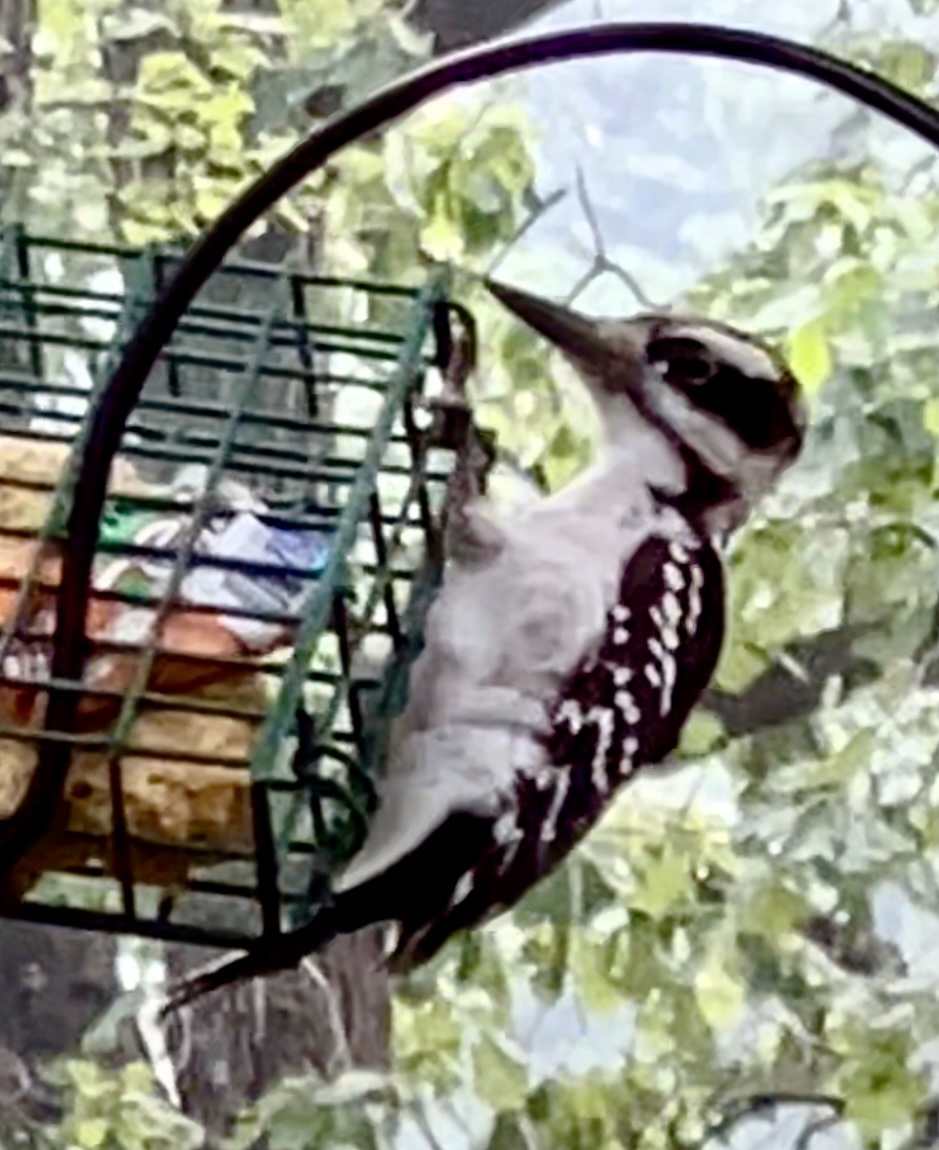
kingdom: Animalia
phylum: Chordata
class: Aves
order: Piciformes
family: Picidae
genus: Leuconotopicus
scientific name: Leuconotopicus villosus
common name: Hairy woodpecker
